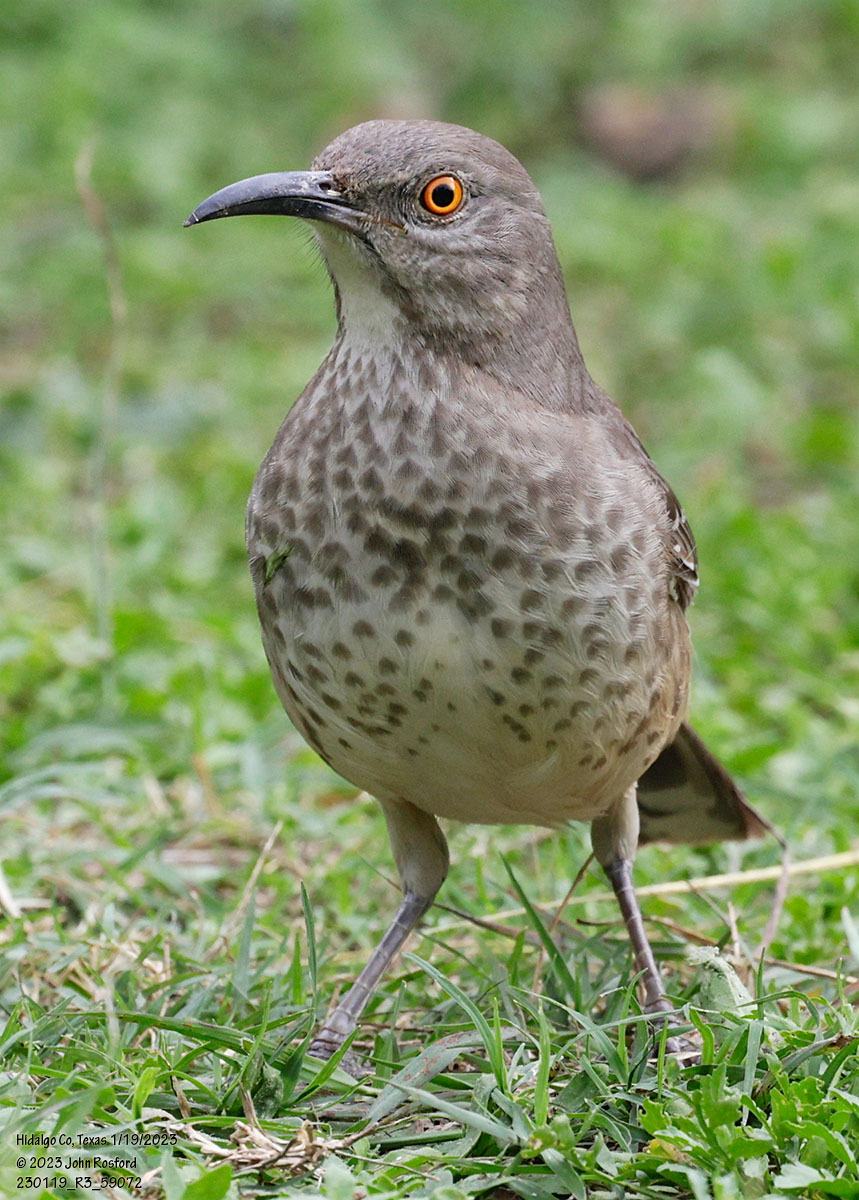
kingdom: Animalia
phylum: Chordata
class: Aves
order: Passeriformes
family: Mimidae
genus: Toxostoma
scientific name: Toxostoma curvirostre
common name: Curve-billed thrasher
